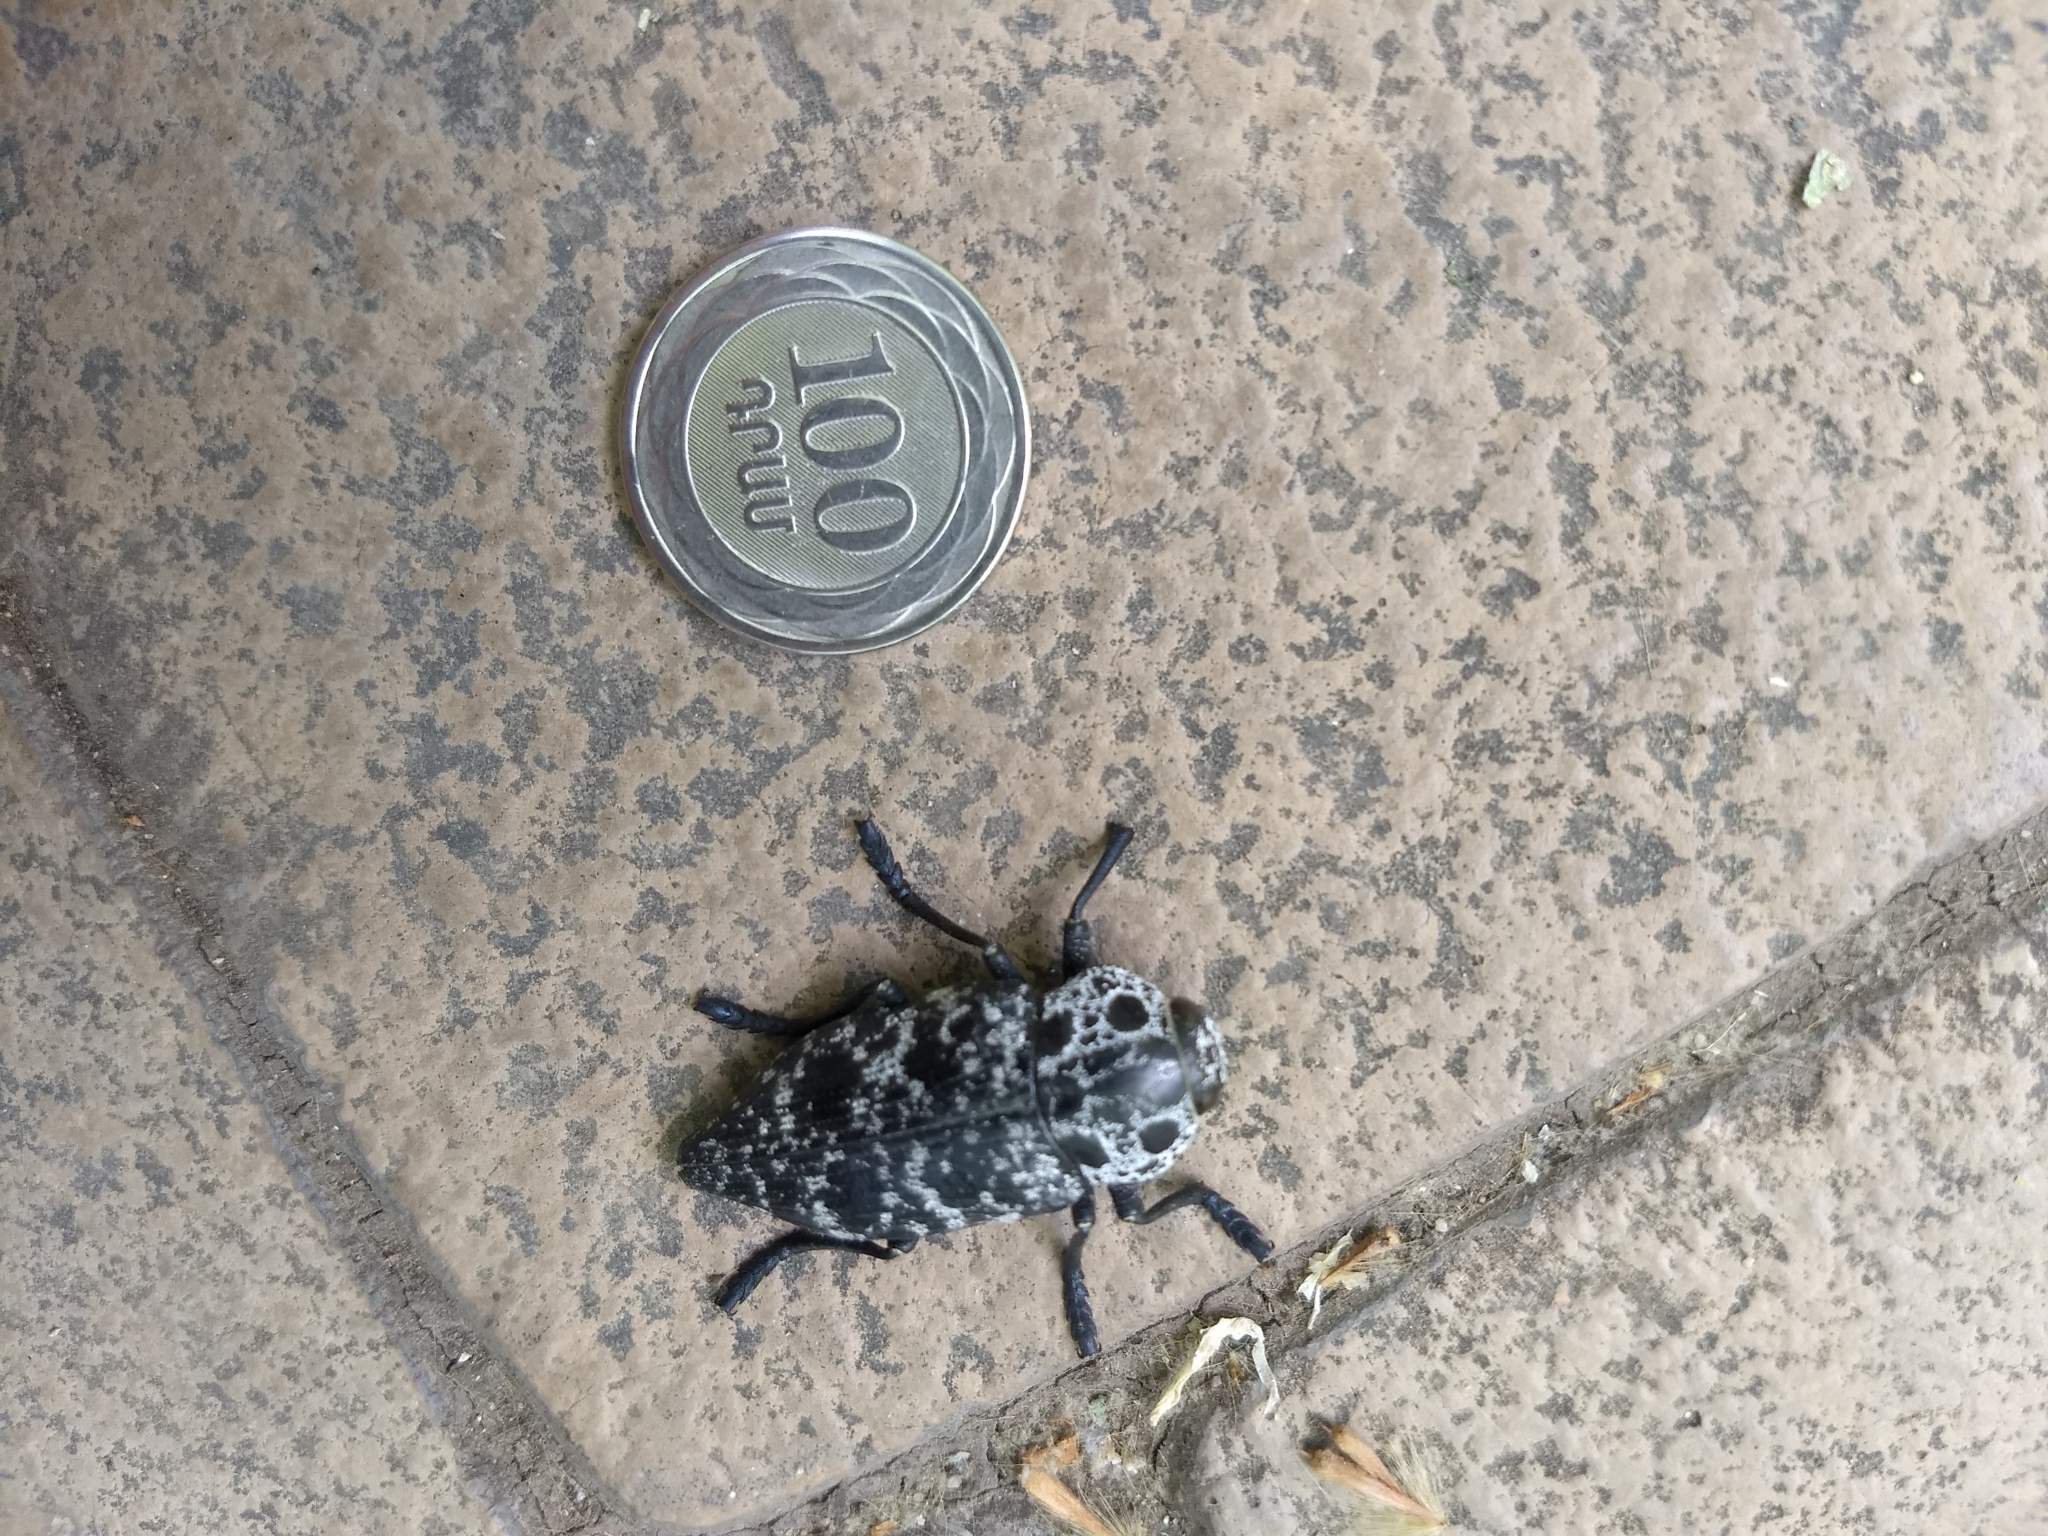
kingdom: Animalia
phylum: Arthropoda
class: Insecta
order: Coleoptera
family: Buprestidae
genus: Capnodis
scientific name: Capnodis cariosa
